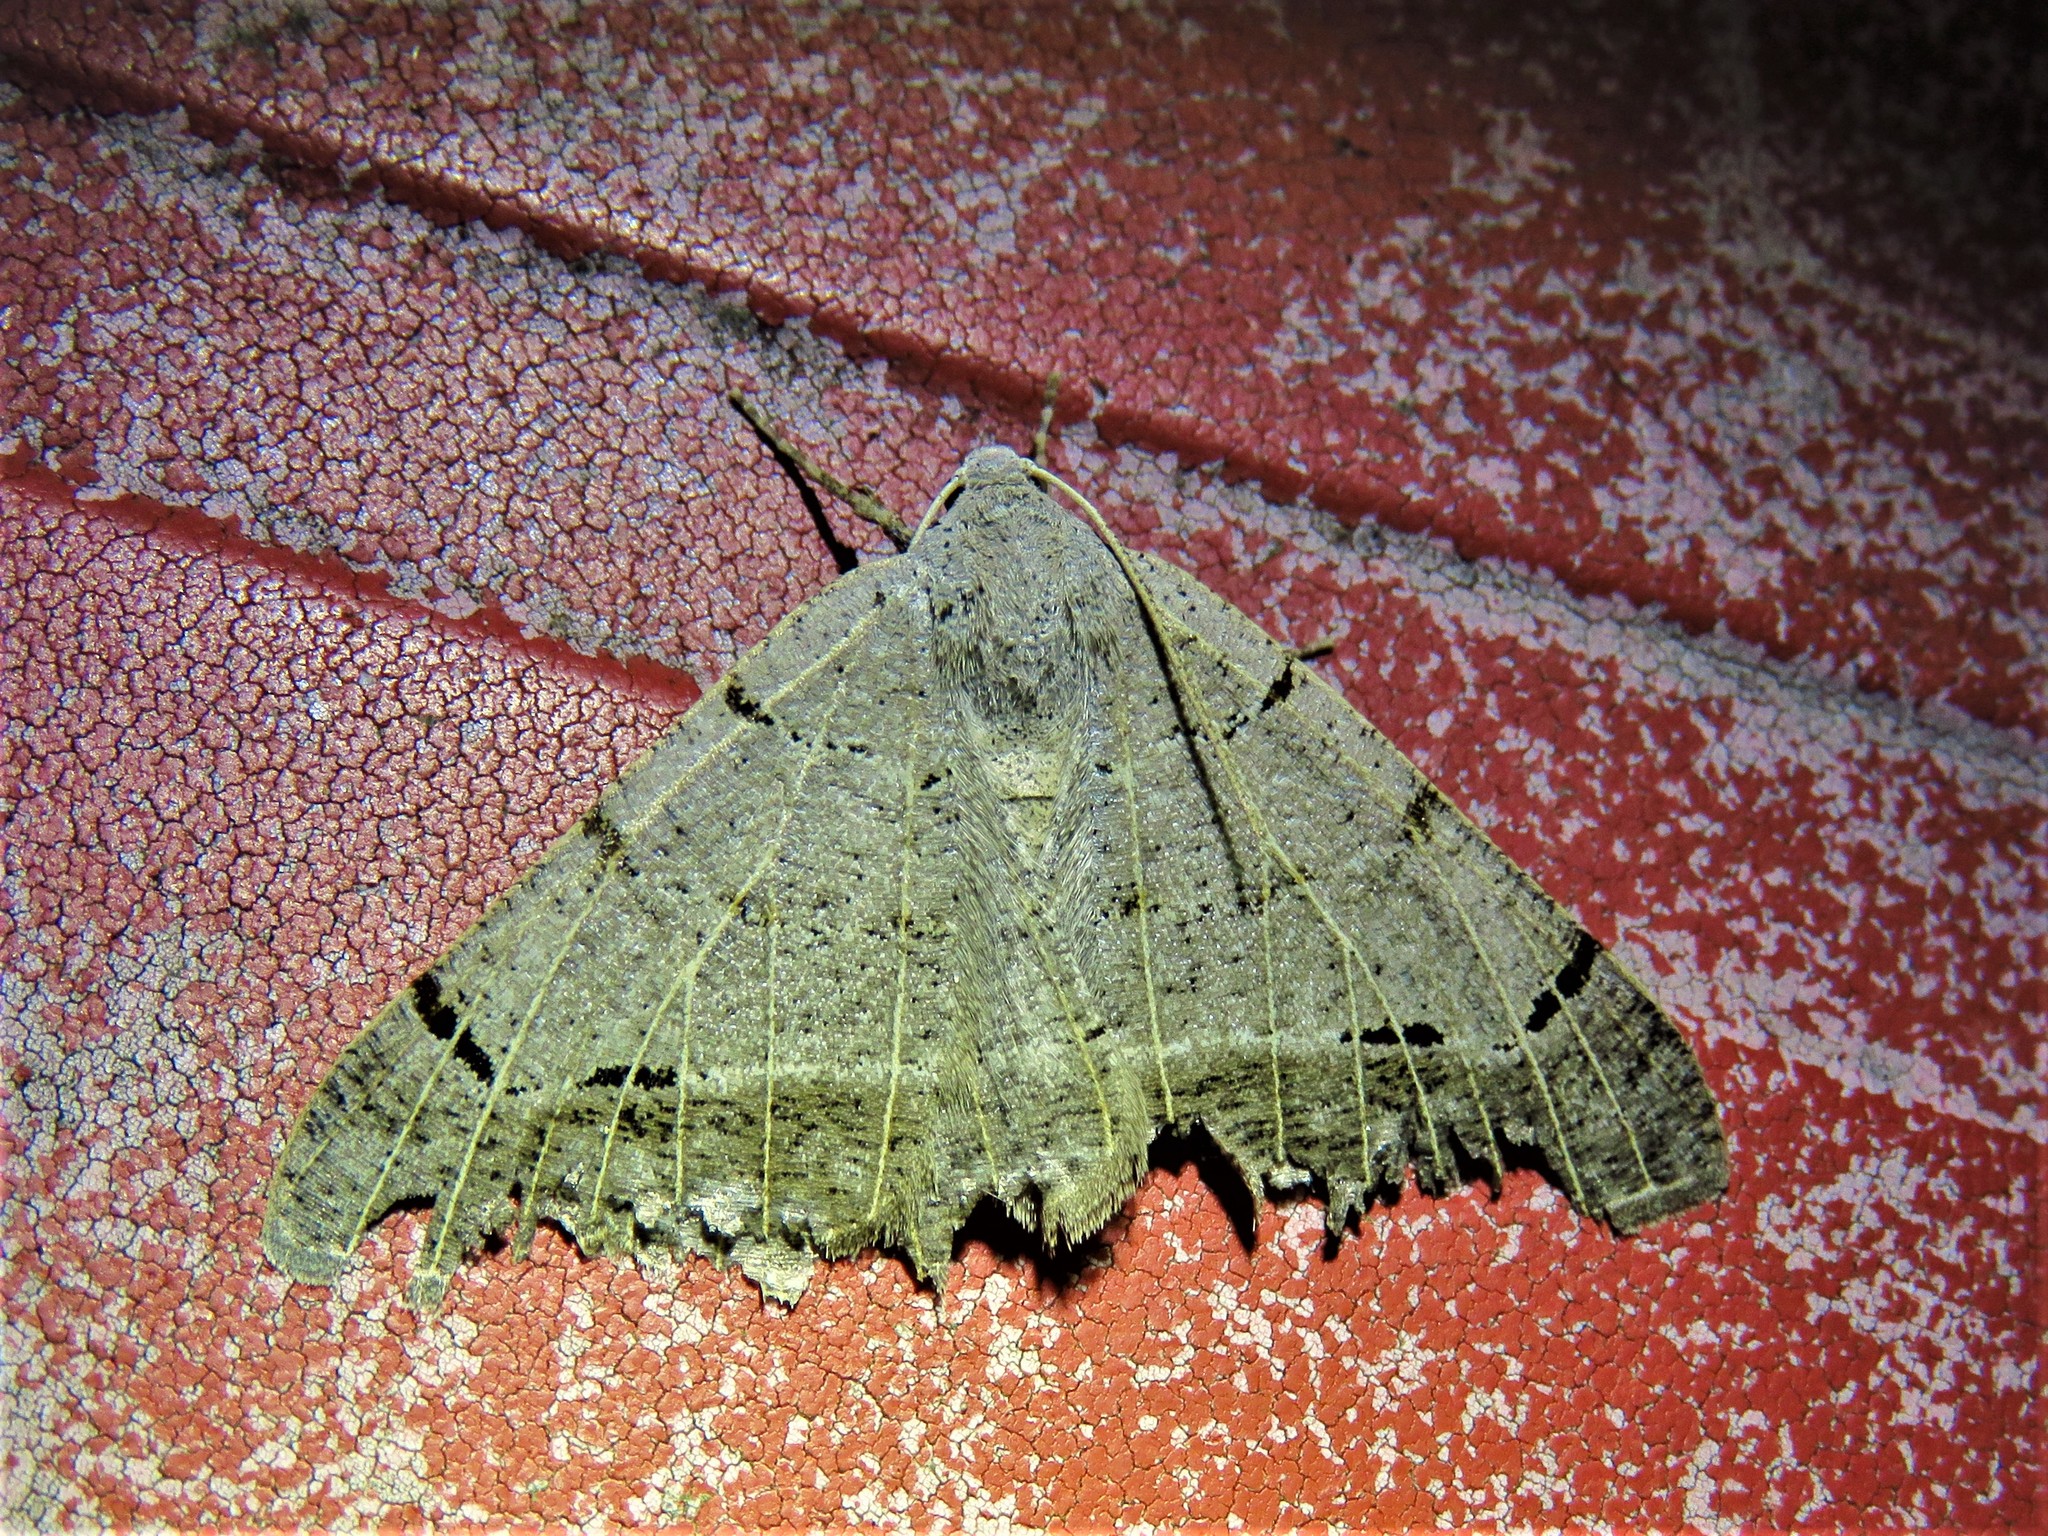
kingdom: Animalia
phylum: Arthropoda
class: Insecta
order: Lepidoptera
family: Geometridae
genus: Isturgia
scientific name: Isturgia dislocaria
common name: Pale-viened enconista
